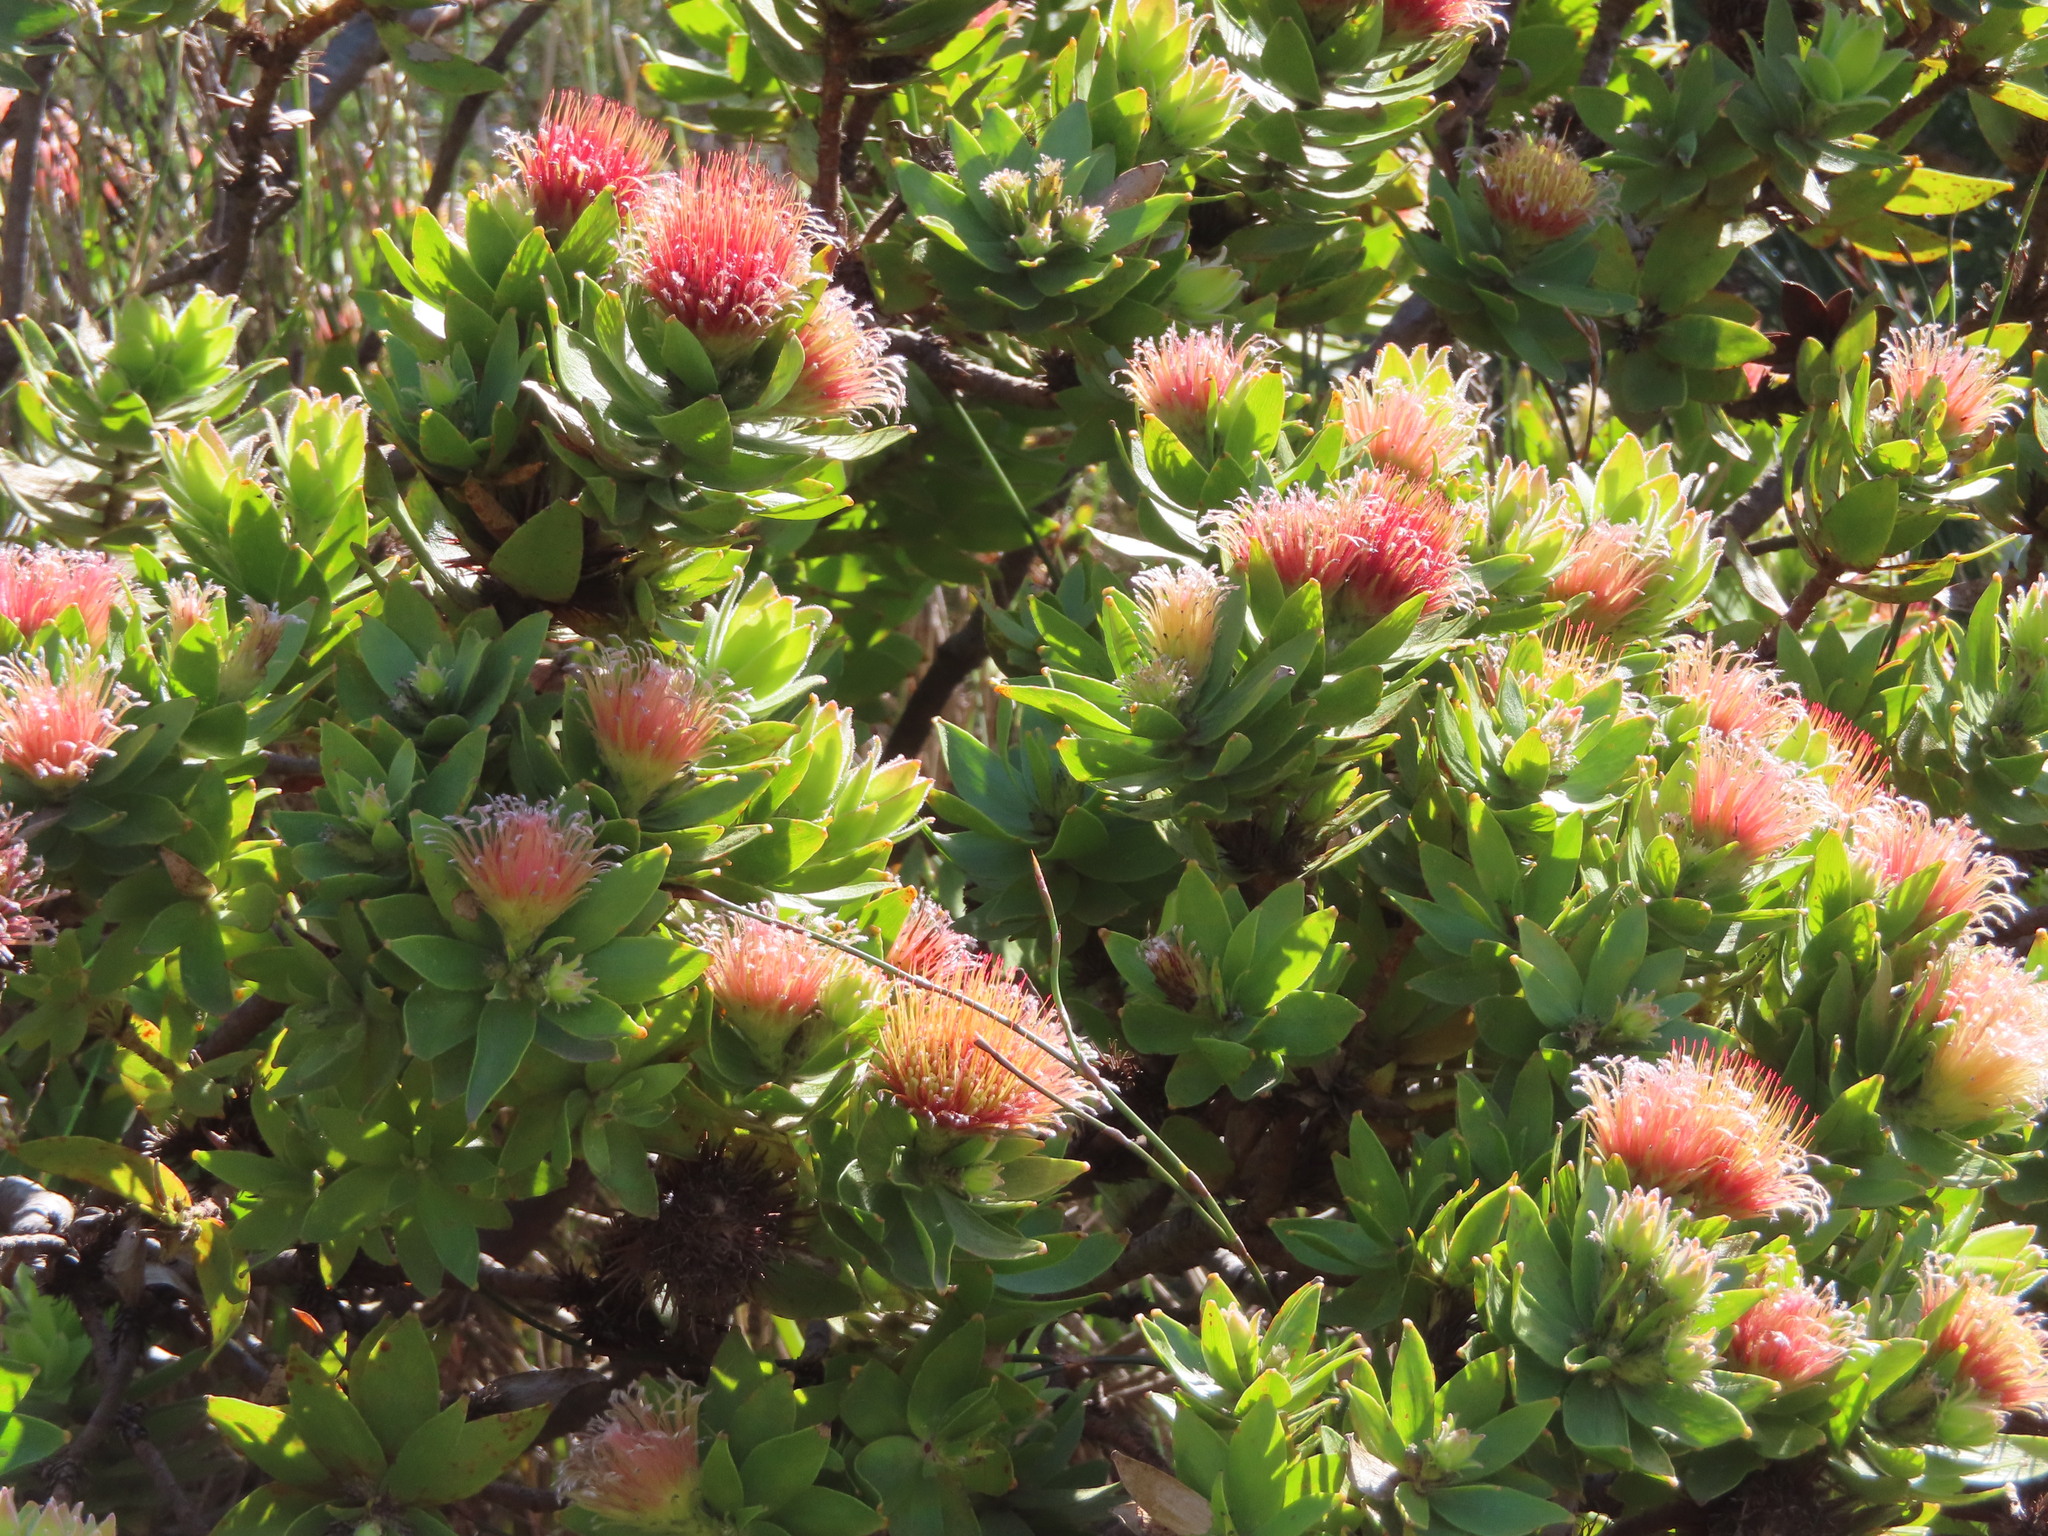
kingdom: Plantae
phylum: Tracheophyta
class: Magnoliopsida
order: Proteales
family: Proteaceae
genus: Leucospermum
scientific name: Leucospermum oleifolium
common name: Matches
